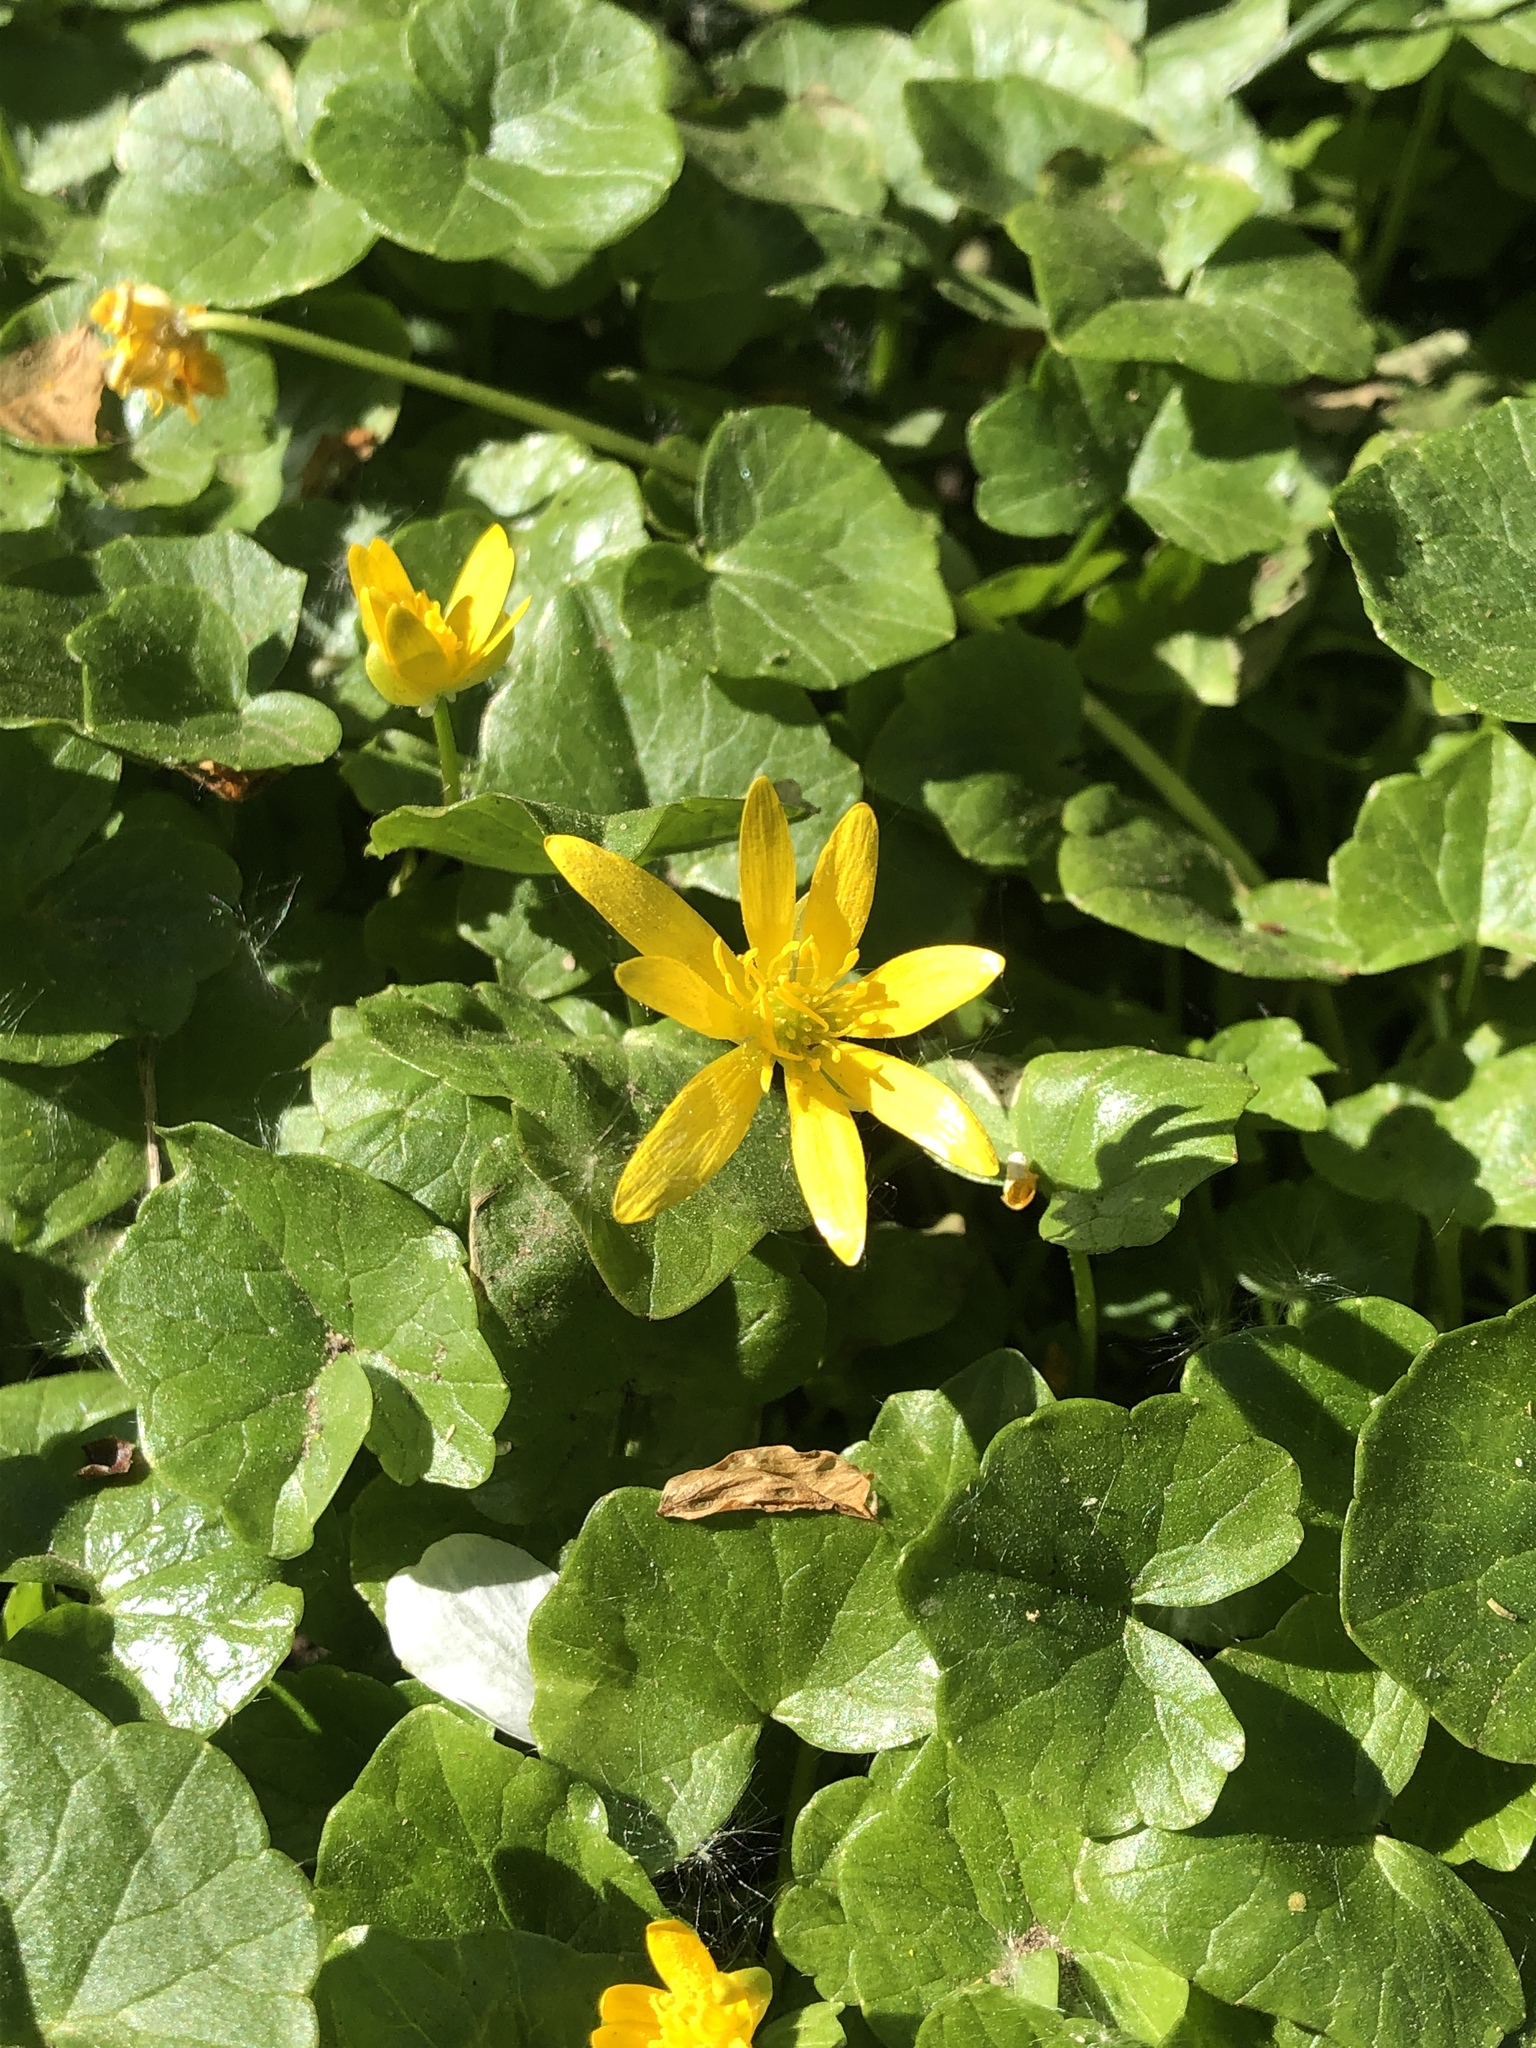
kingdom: Plantae
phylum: Tracheophyta
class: Magnoliopsida
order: Ranunculales
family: Ranunculaceae
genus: Ficaria
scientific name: Ficaria verna
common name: Lesser celandine
